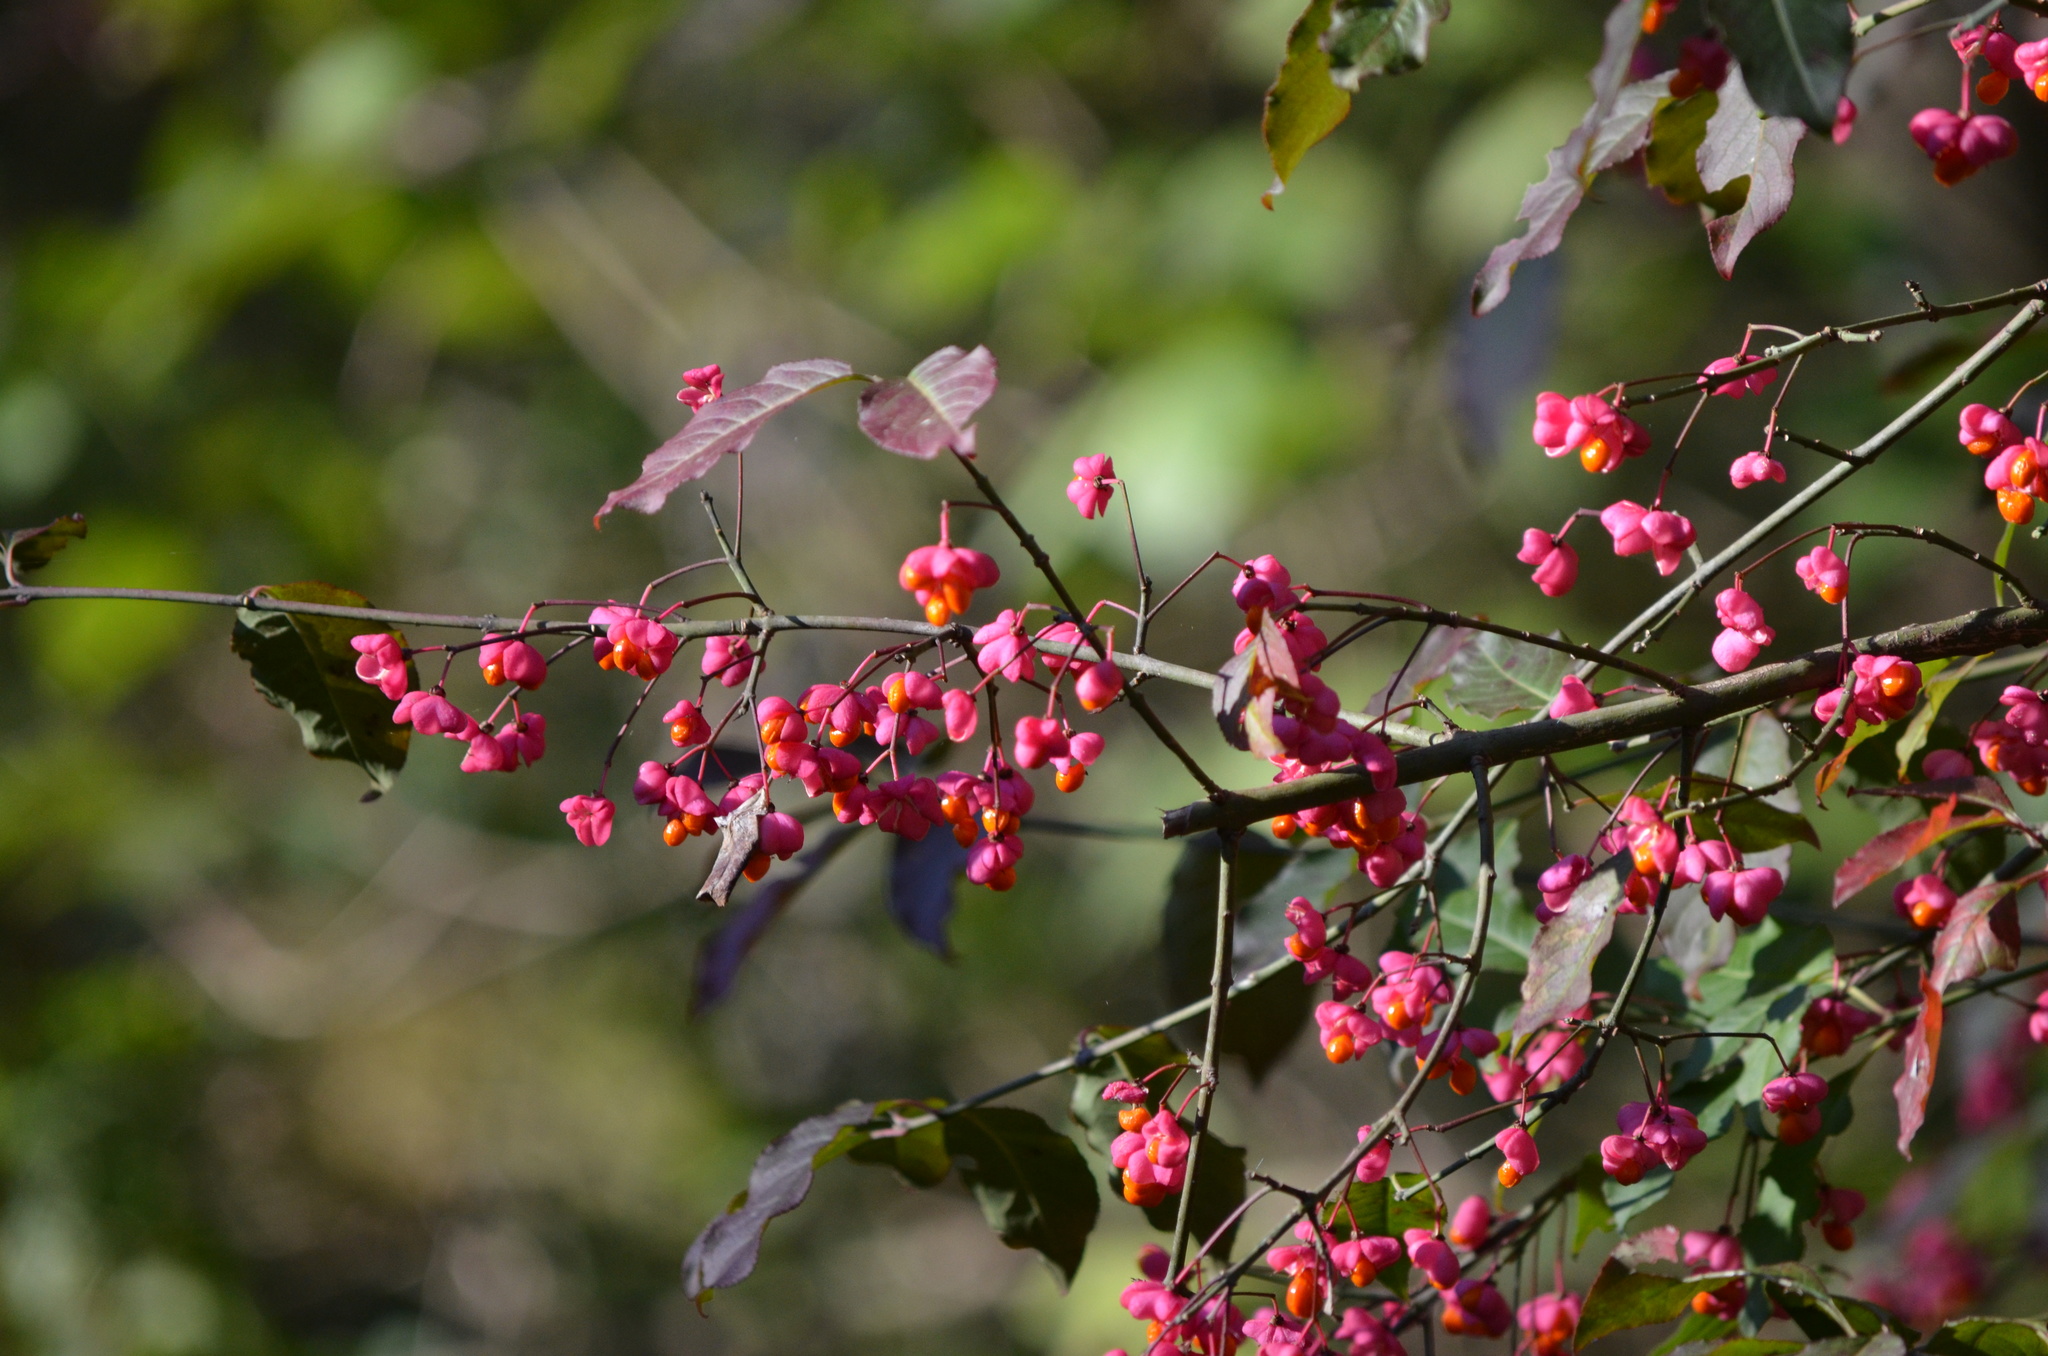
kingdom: Plantae
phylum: Tracheophyta
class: Magnoliopsida
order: Celastrales
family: Celastraceae
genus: Euonymus
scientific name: Euonymus europaeus
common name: Spindle
